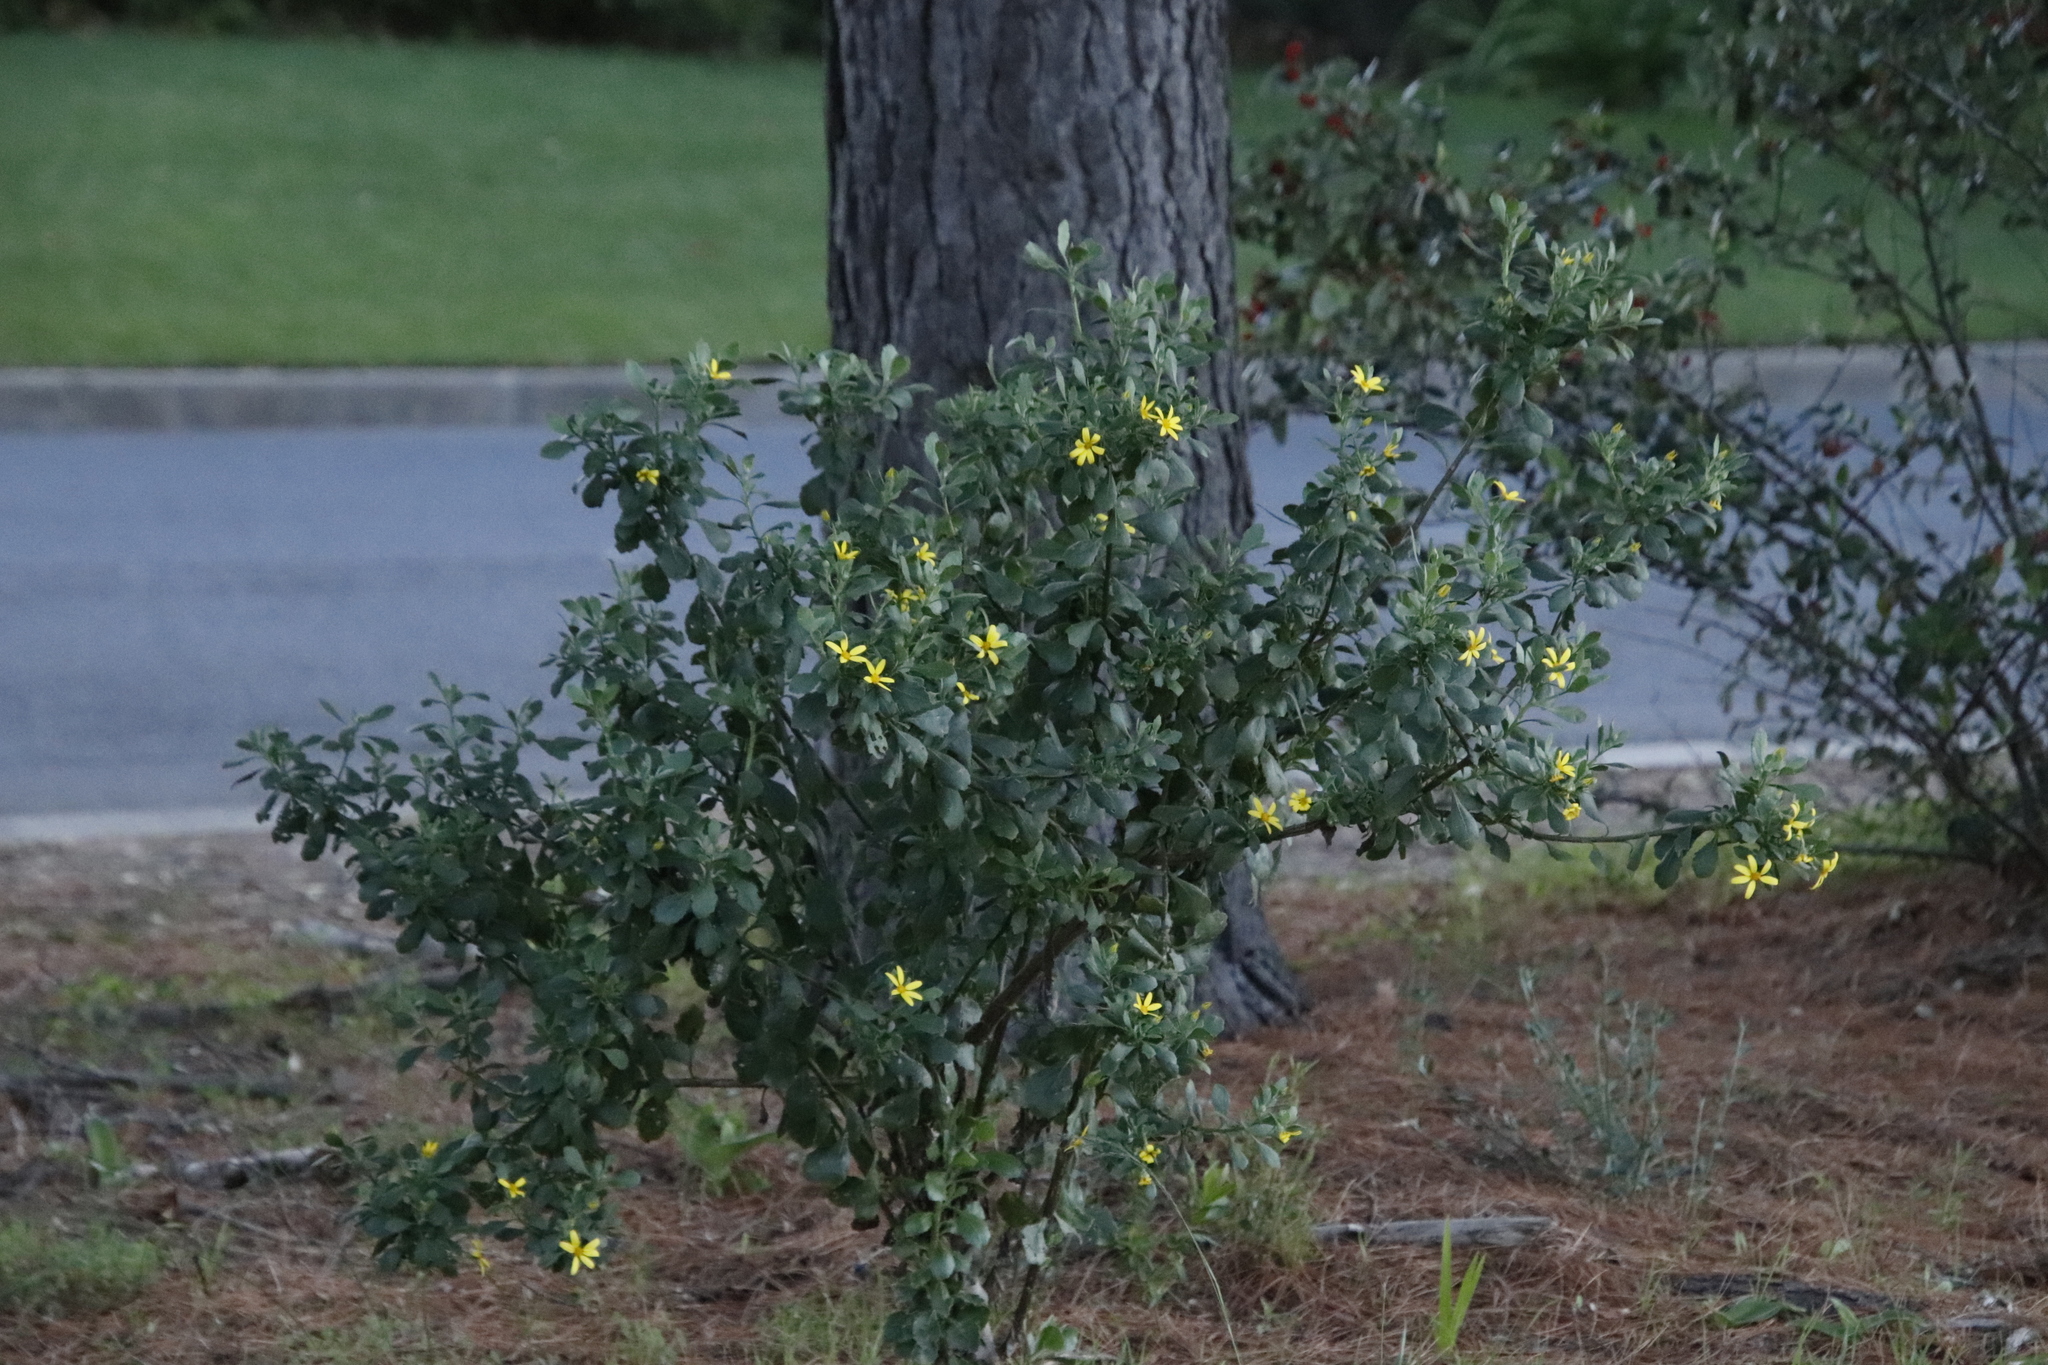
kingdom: Plantae
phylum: Tracheophyta
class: Magnoliopsida
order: Asterales
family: Asteraceae
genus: Osteospermum
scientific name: Osteospermum moniliferum
